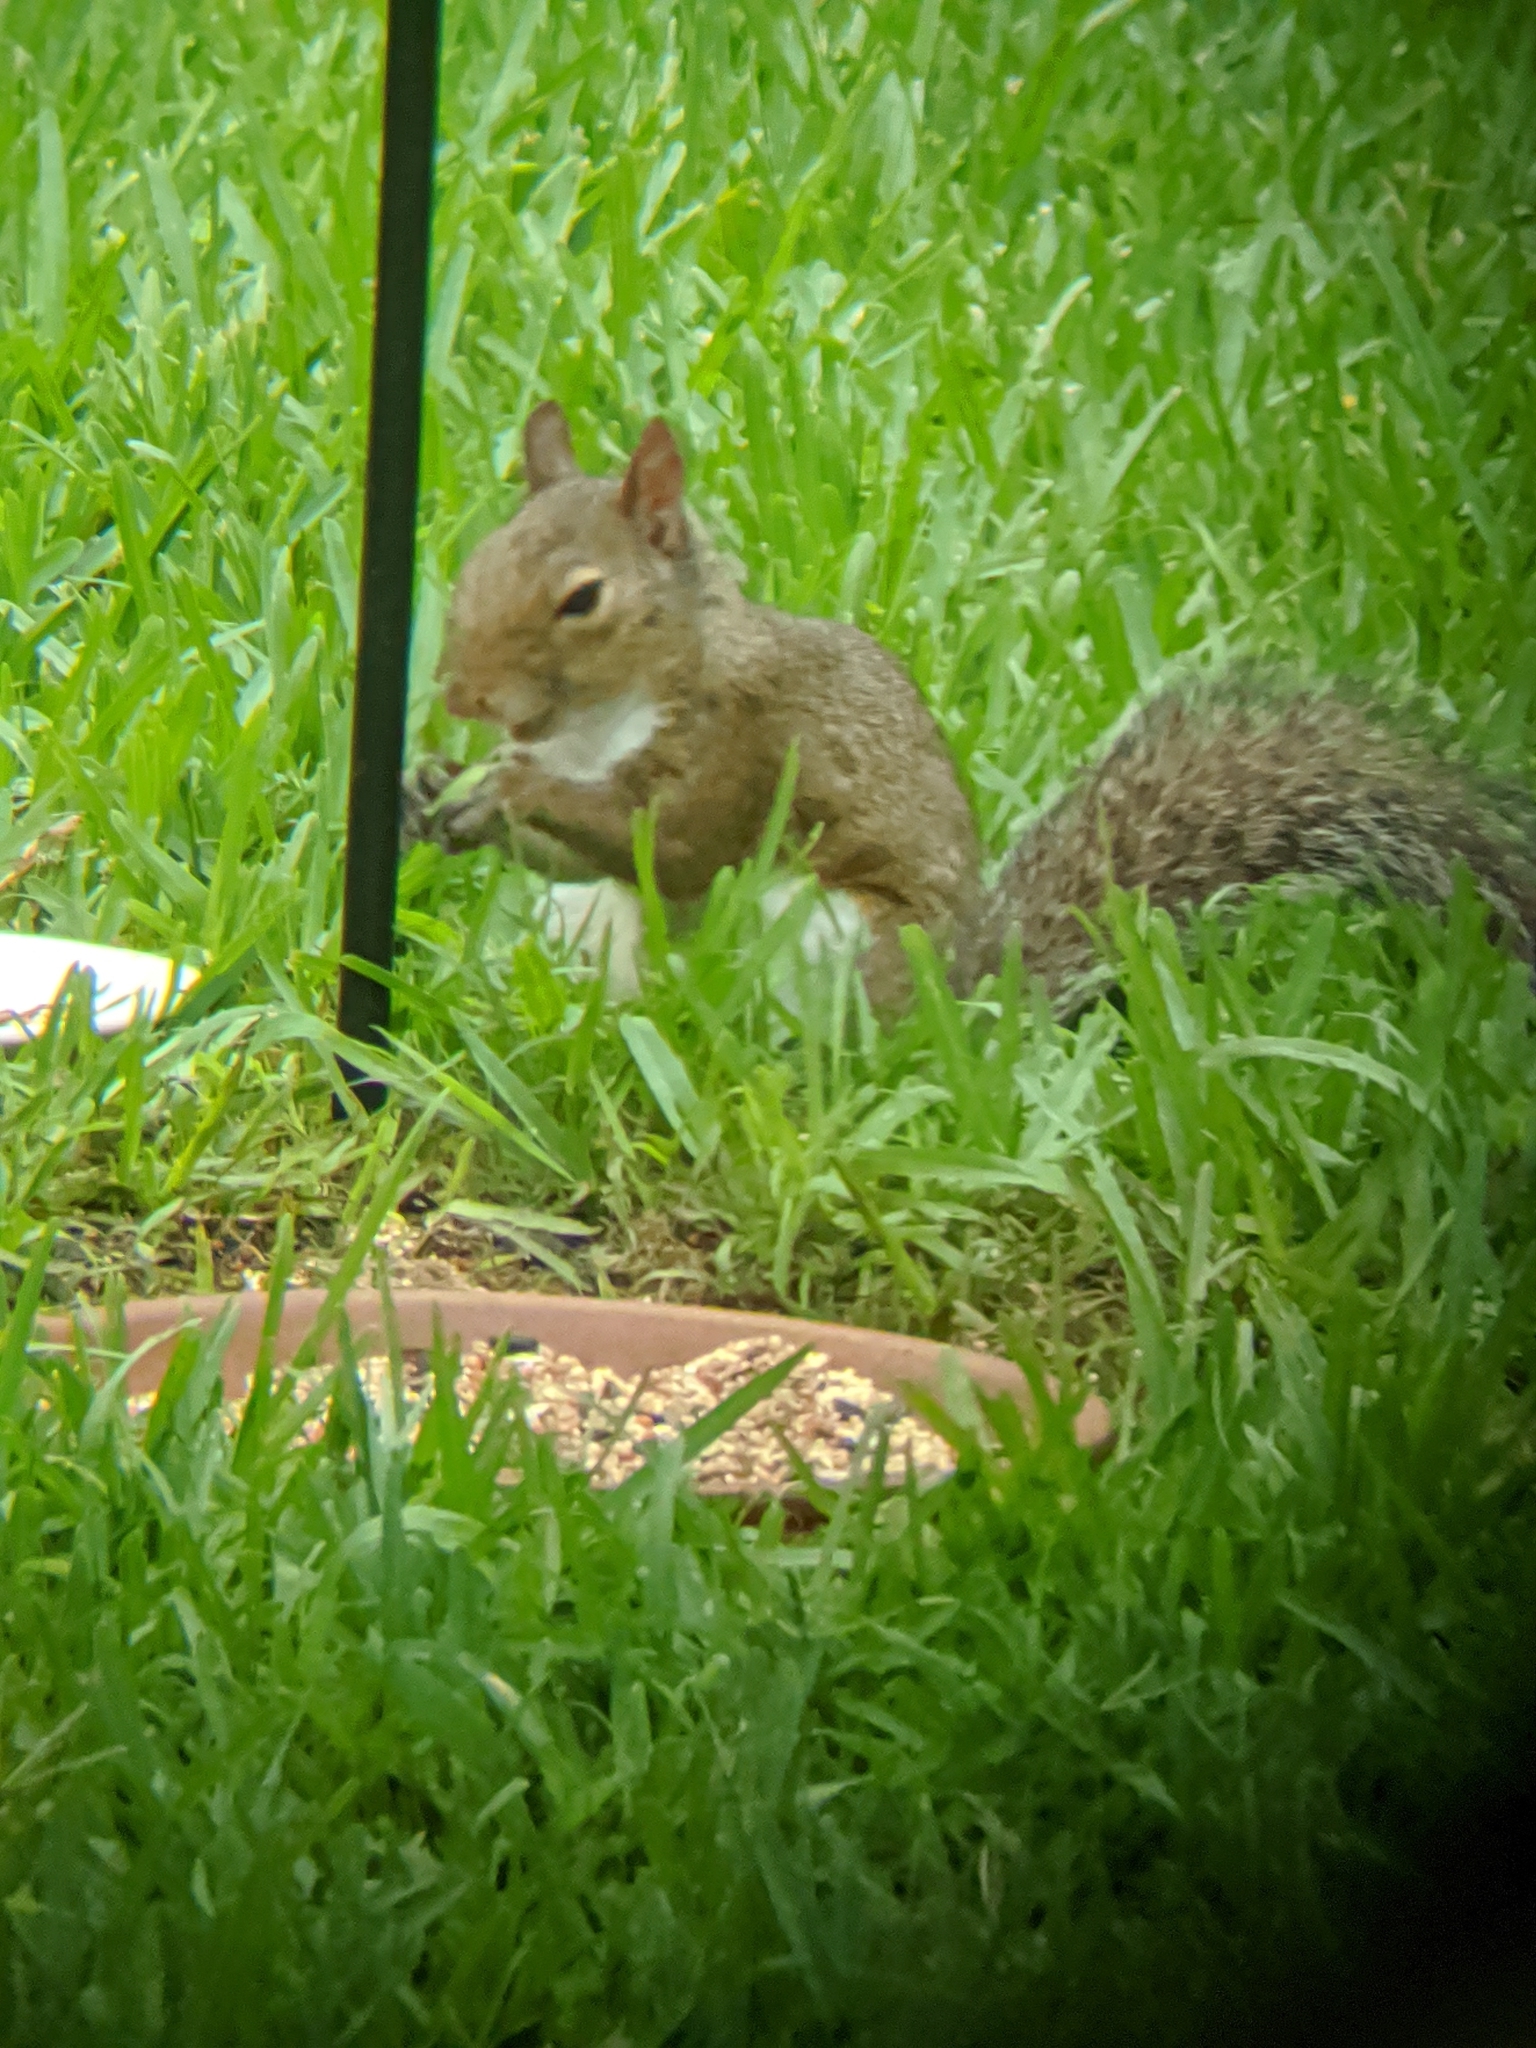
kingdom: Animalia
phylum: Chordata
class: Mammalia
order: Rodentia
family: Sciuridae
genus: Sciurus
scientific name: Sciurus carolinensis
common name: Eastern gray squirrel
